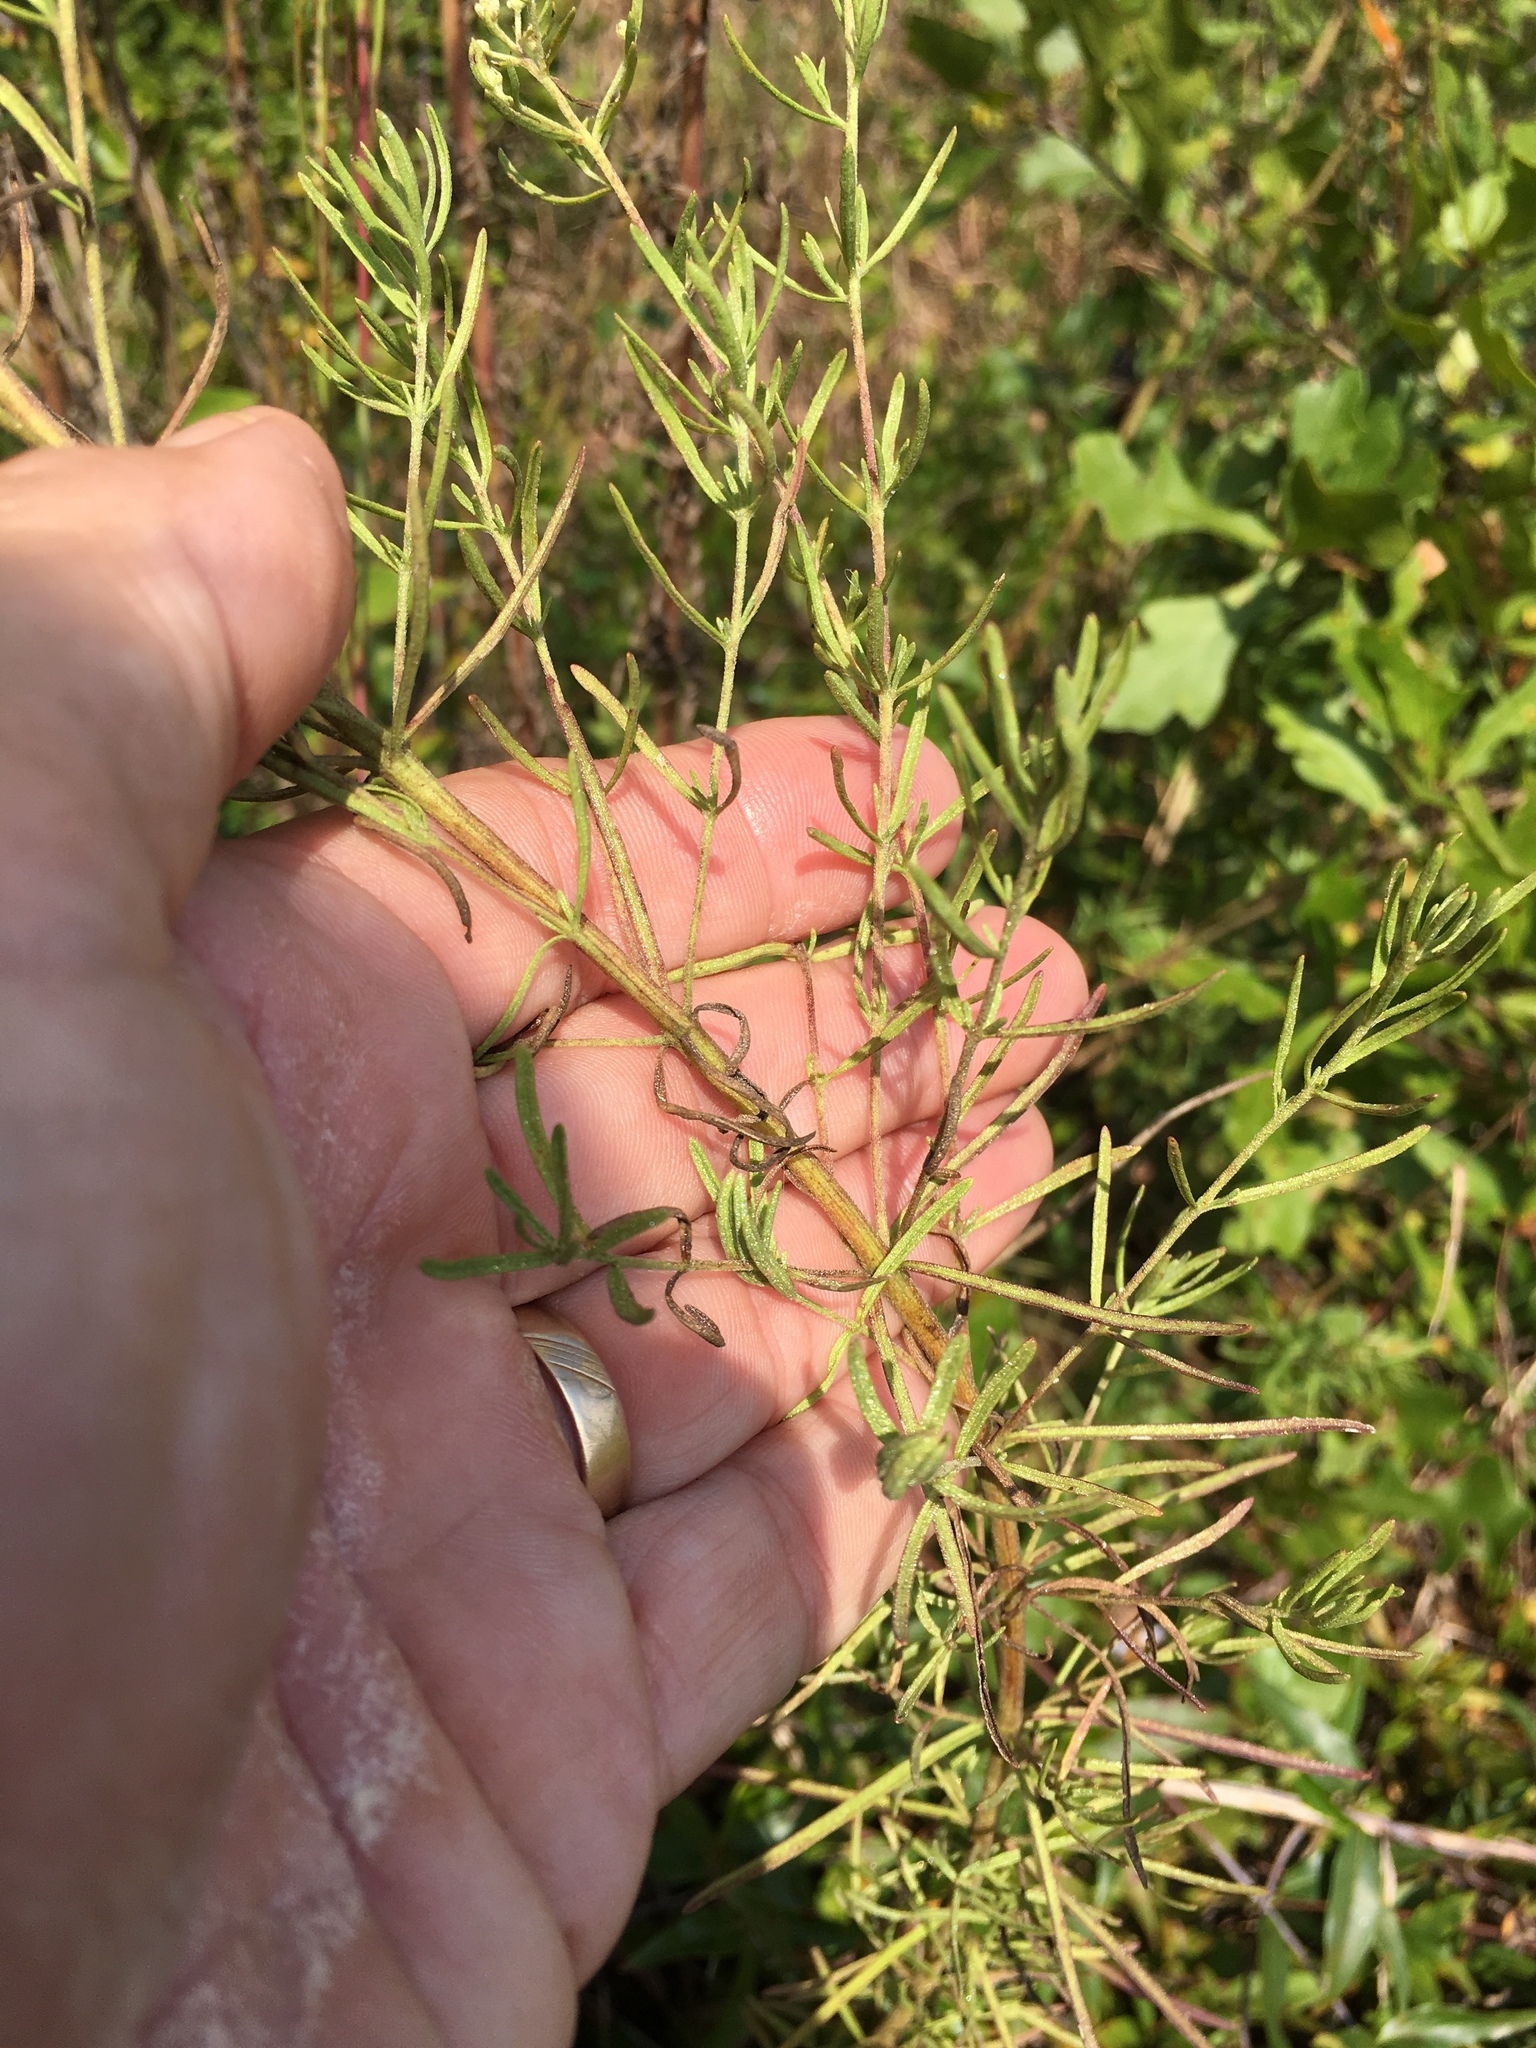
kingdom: Plantae
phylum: Tracheophyta
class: Magnoliopsida
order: Asterales
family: Asteraceae
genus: Eupatorium
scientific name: Eupatorium hyssopifolium
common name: Hyssop-leaf thoroughwort
